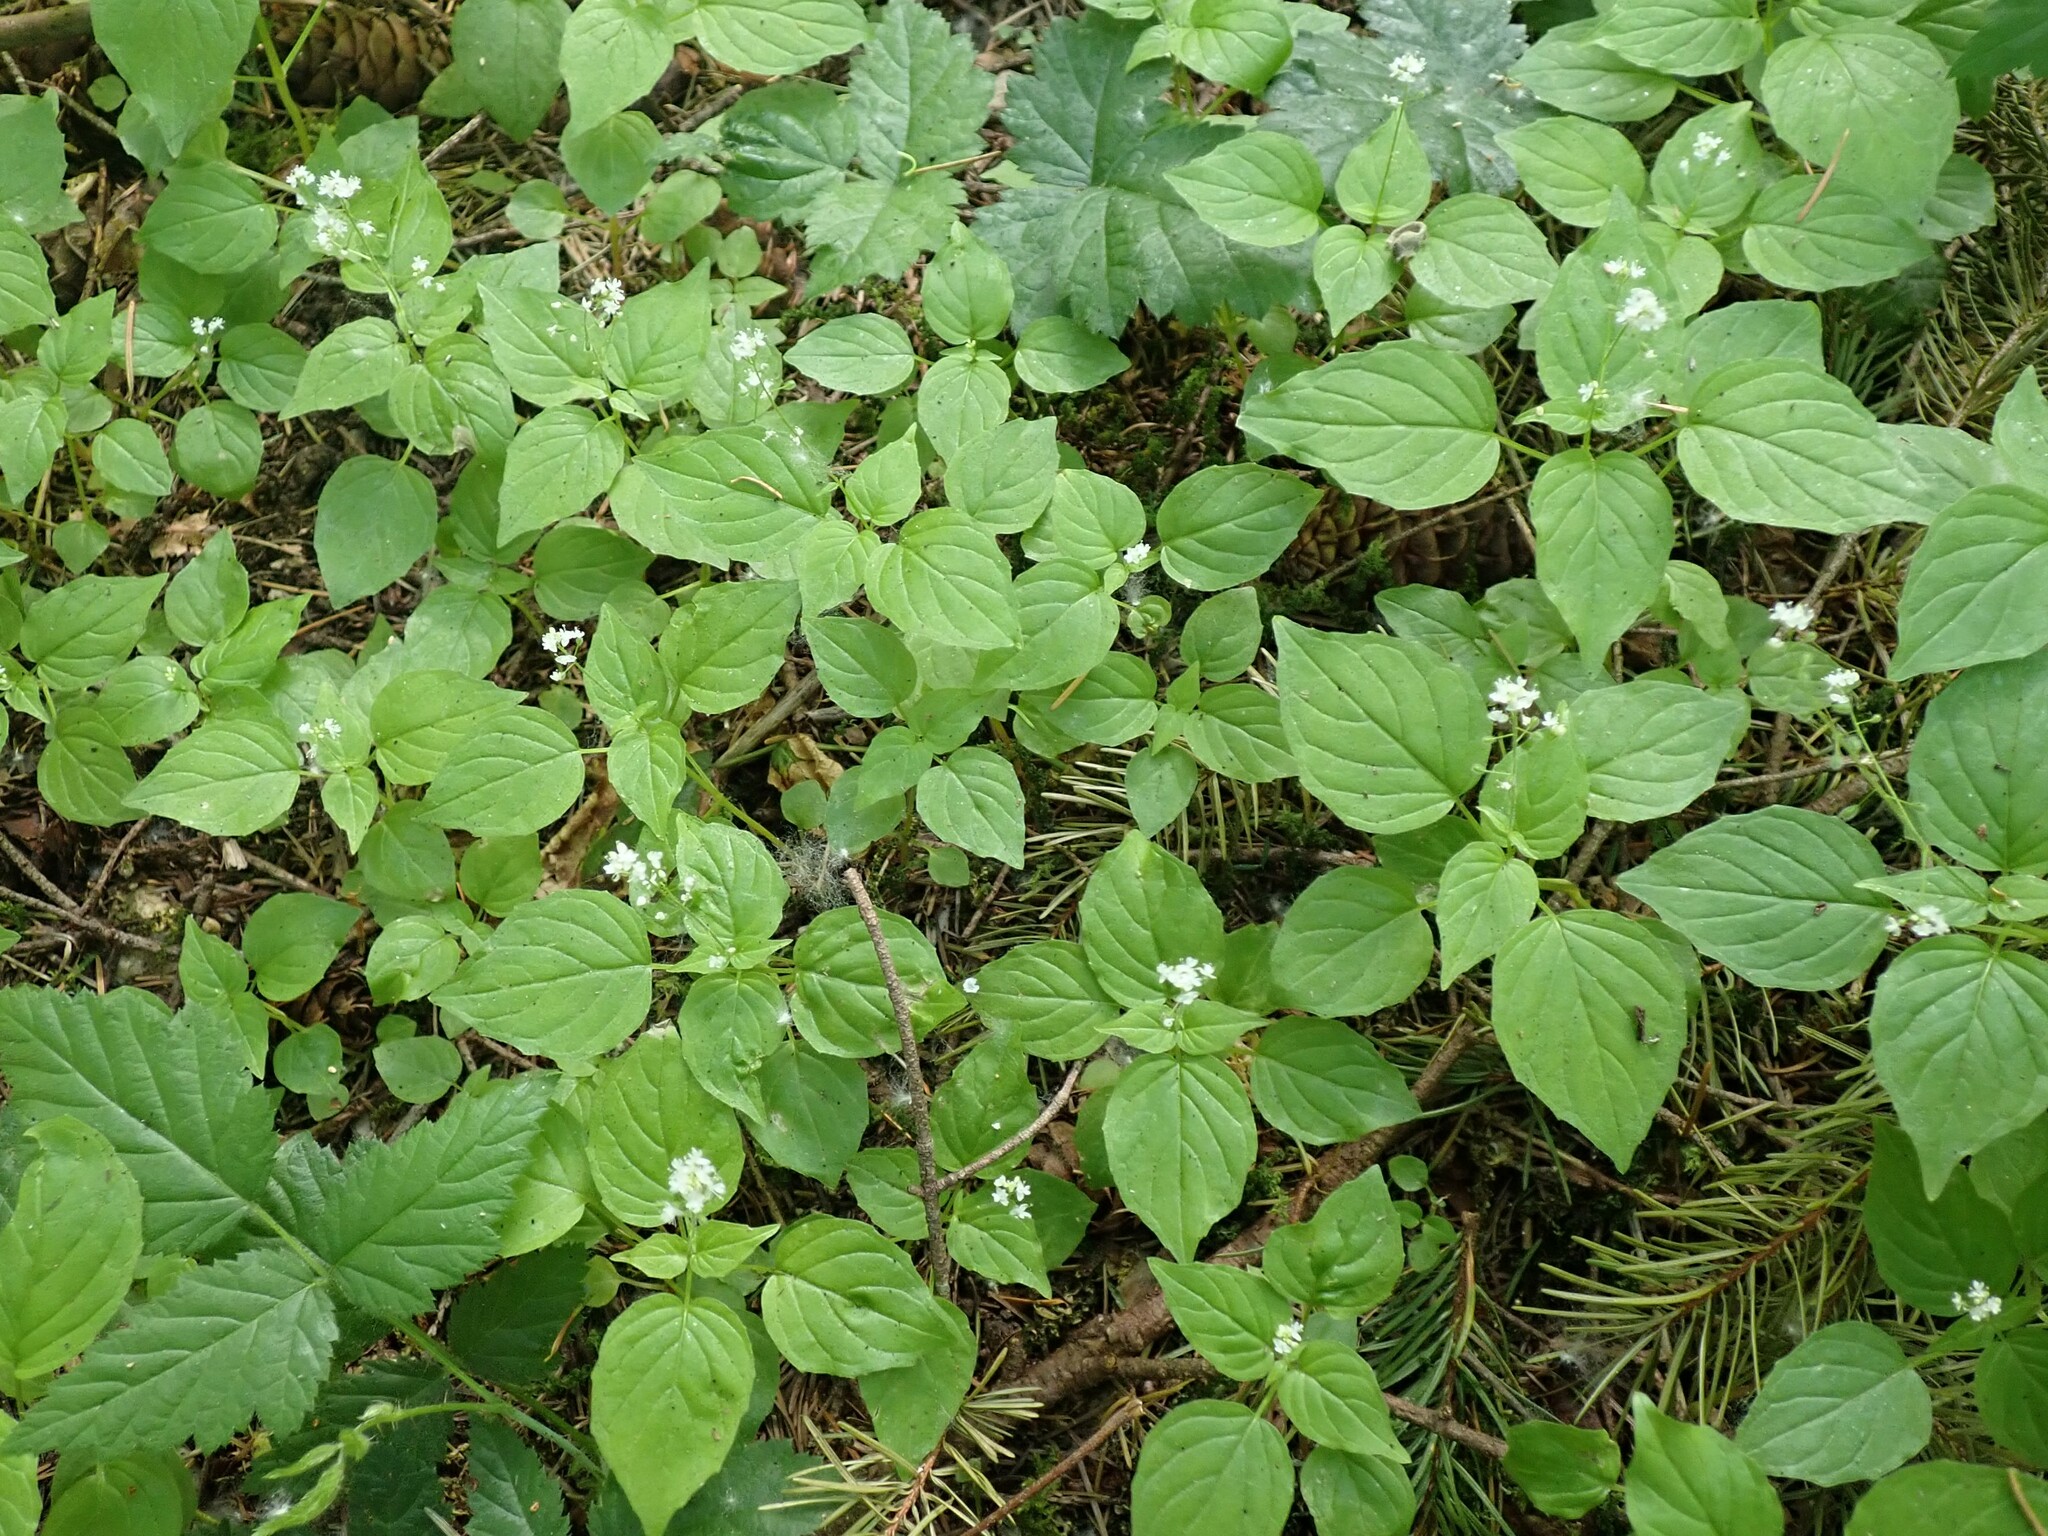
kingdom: Plantae
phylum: Tracheophyta
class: Magnoliopsida
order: Myrtales
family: Onagraceae
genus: Circaea
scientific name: Circaea alpina
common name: Alpine enchanter's-nightshade
